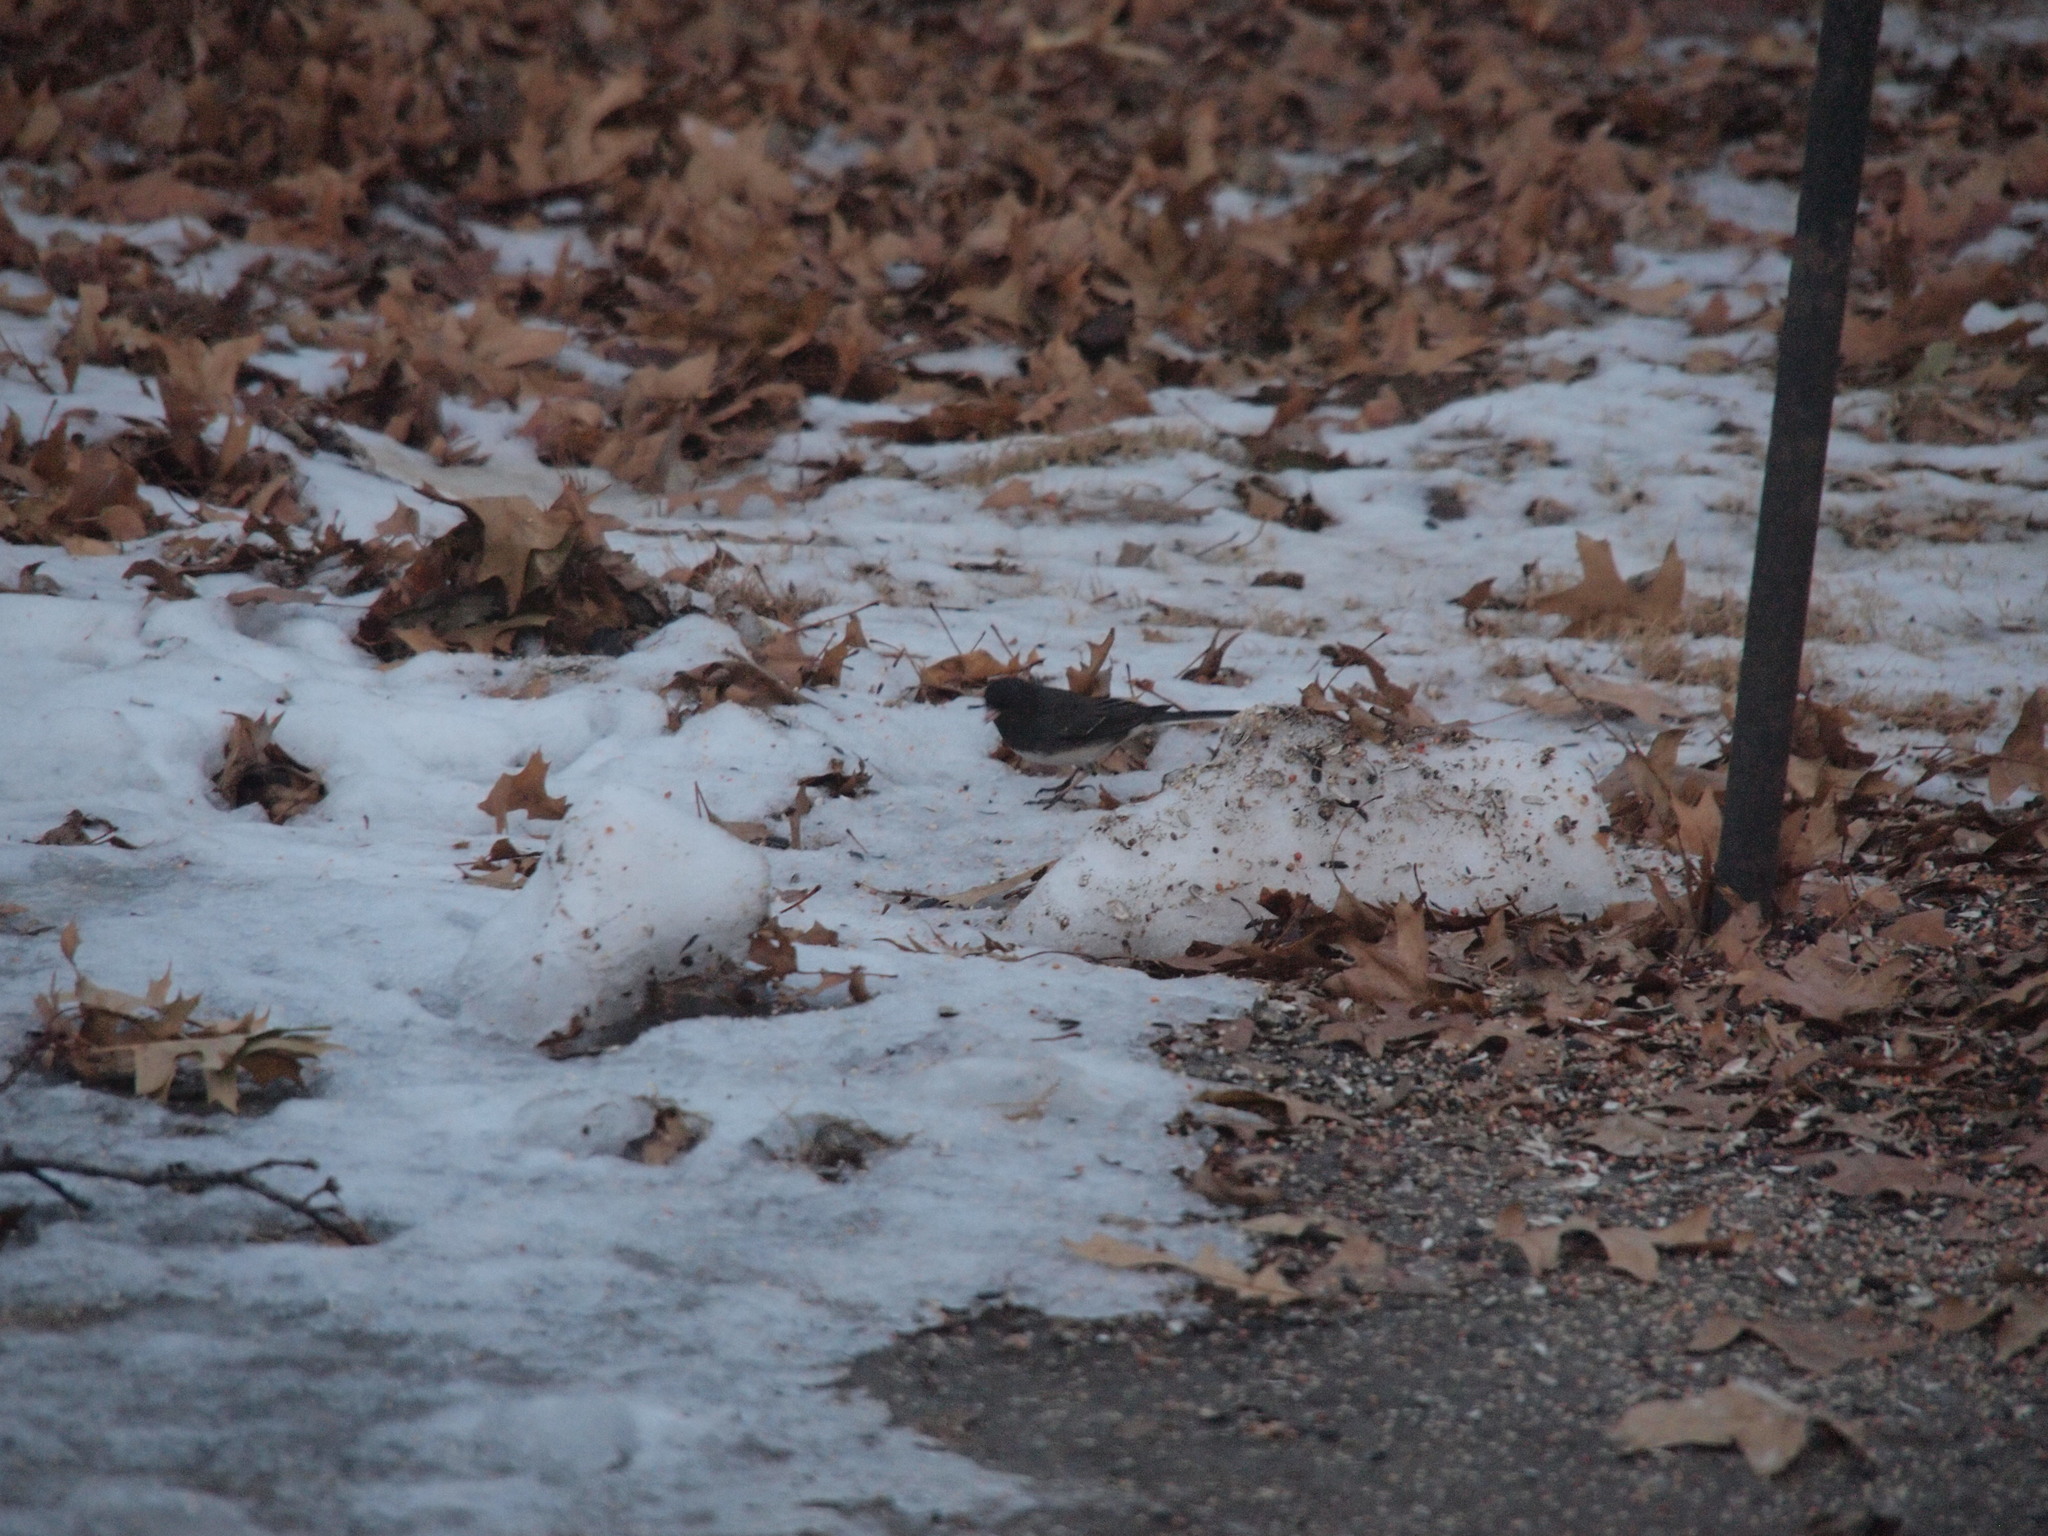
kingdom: Animalia
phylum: Chordata
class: Aves
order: Passeriformes
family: Passerellidae
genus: Junco
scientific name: Junco hyemalis
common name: Dark-eyed junco
